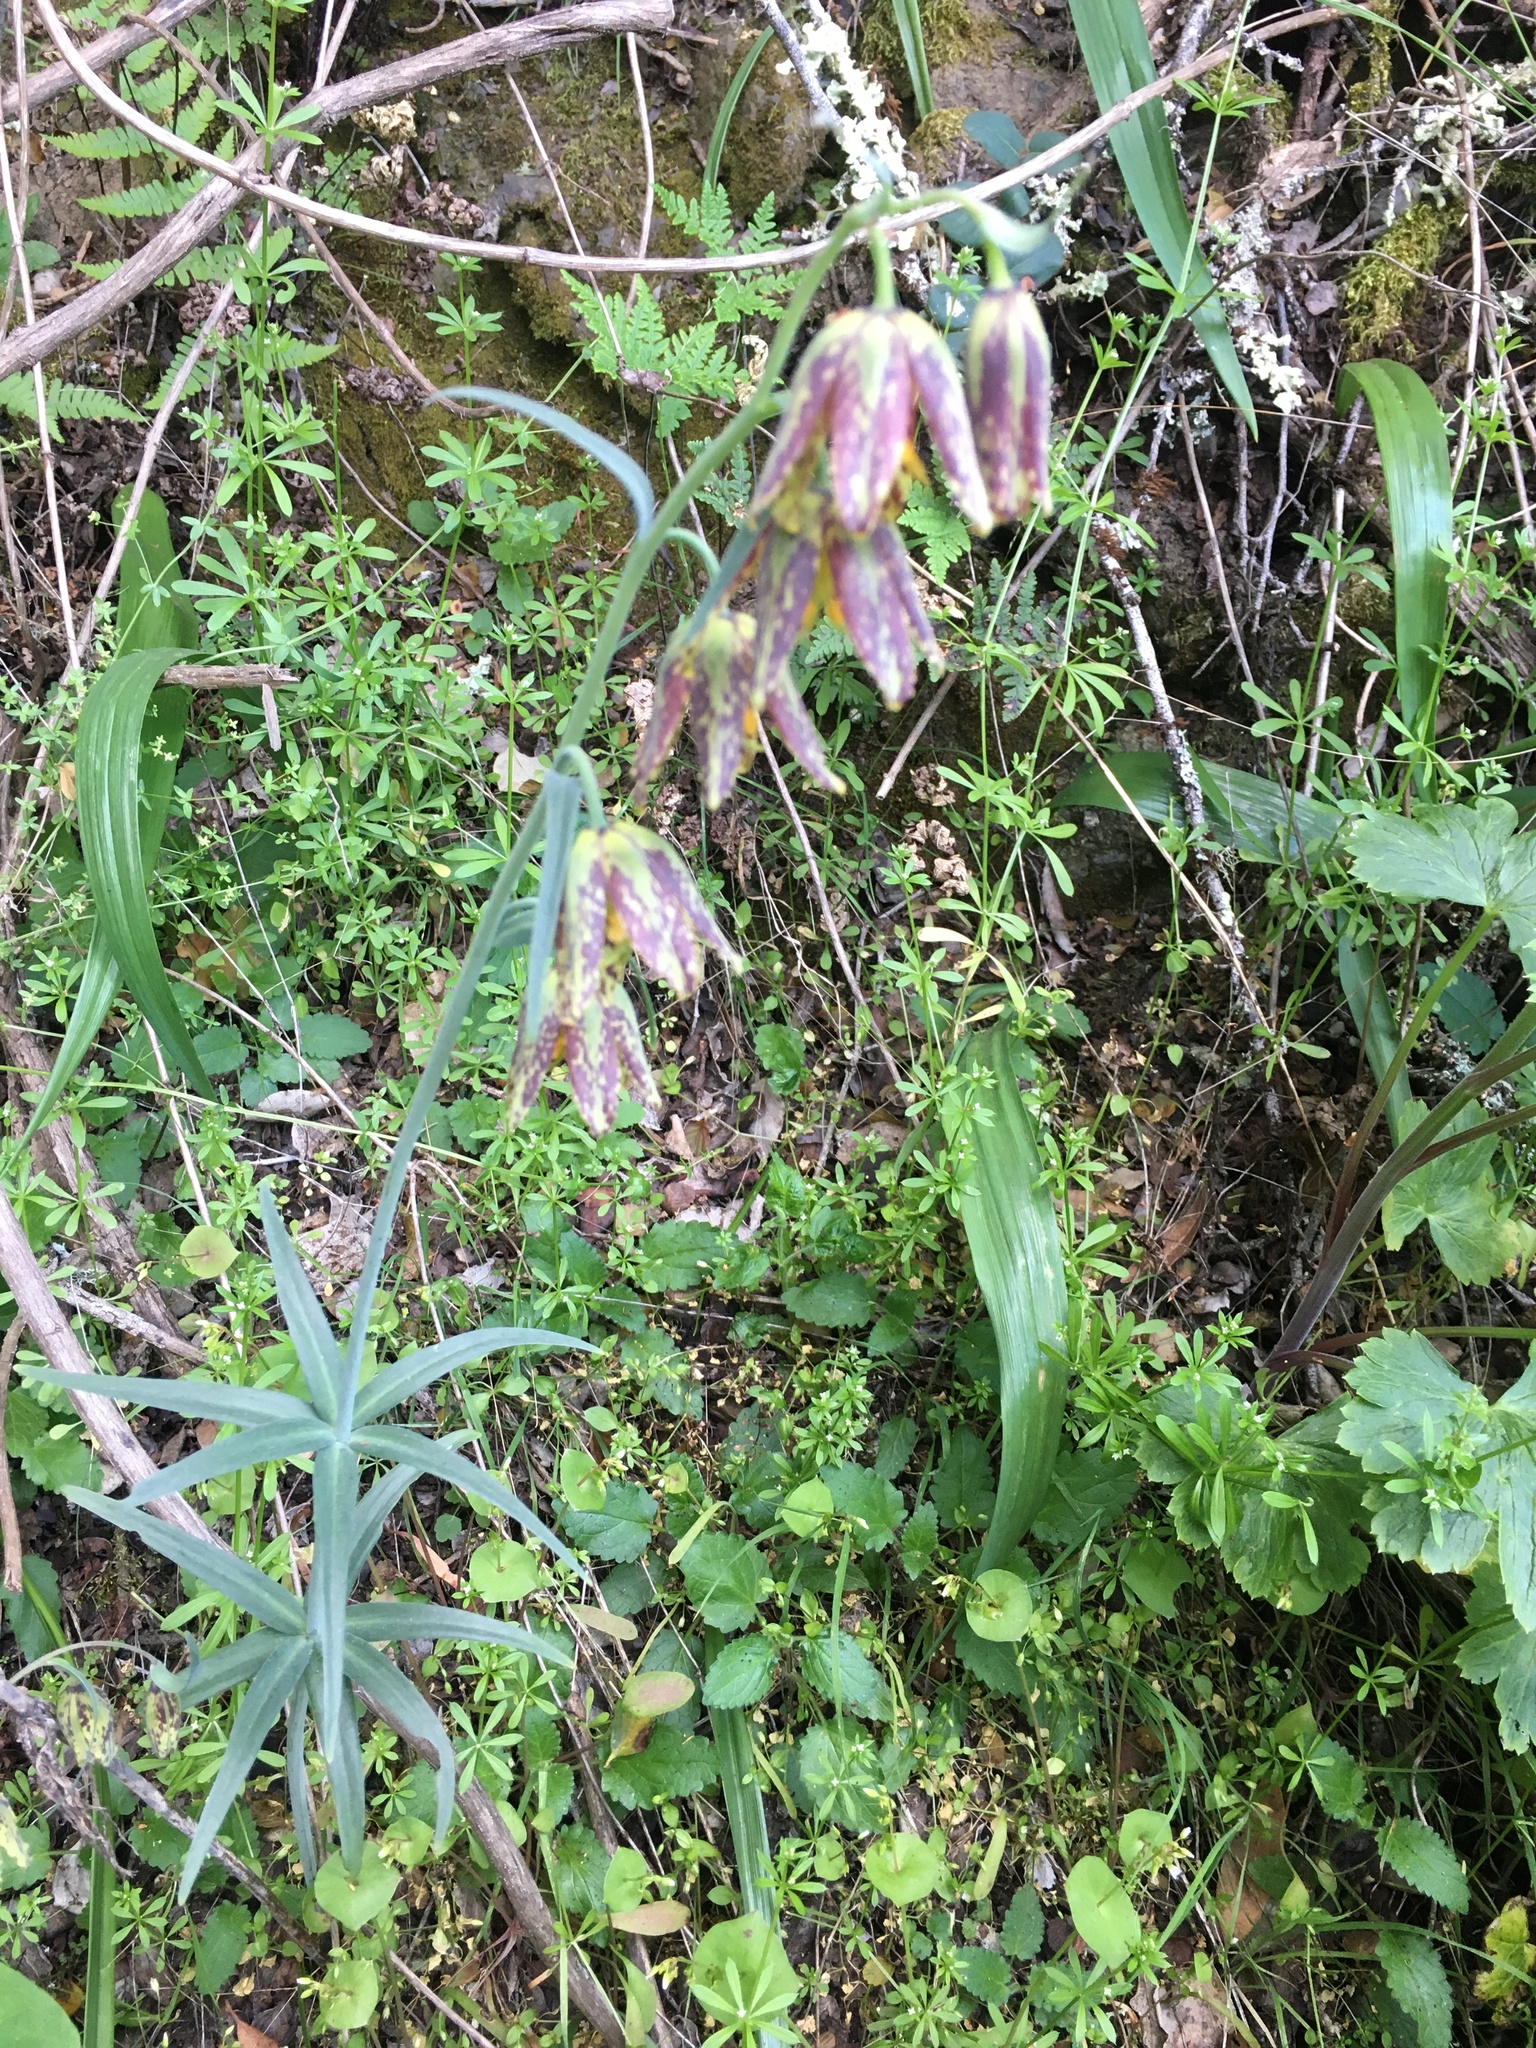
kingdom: Plantae
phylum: Tracheophyta
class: Liliopsida
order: Liliales
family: Liliaceae
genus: Fritillaria
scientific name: Fritillaria affinis
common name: Ojai fritillary
